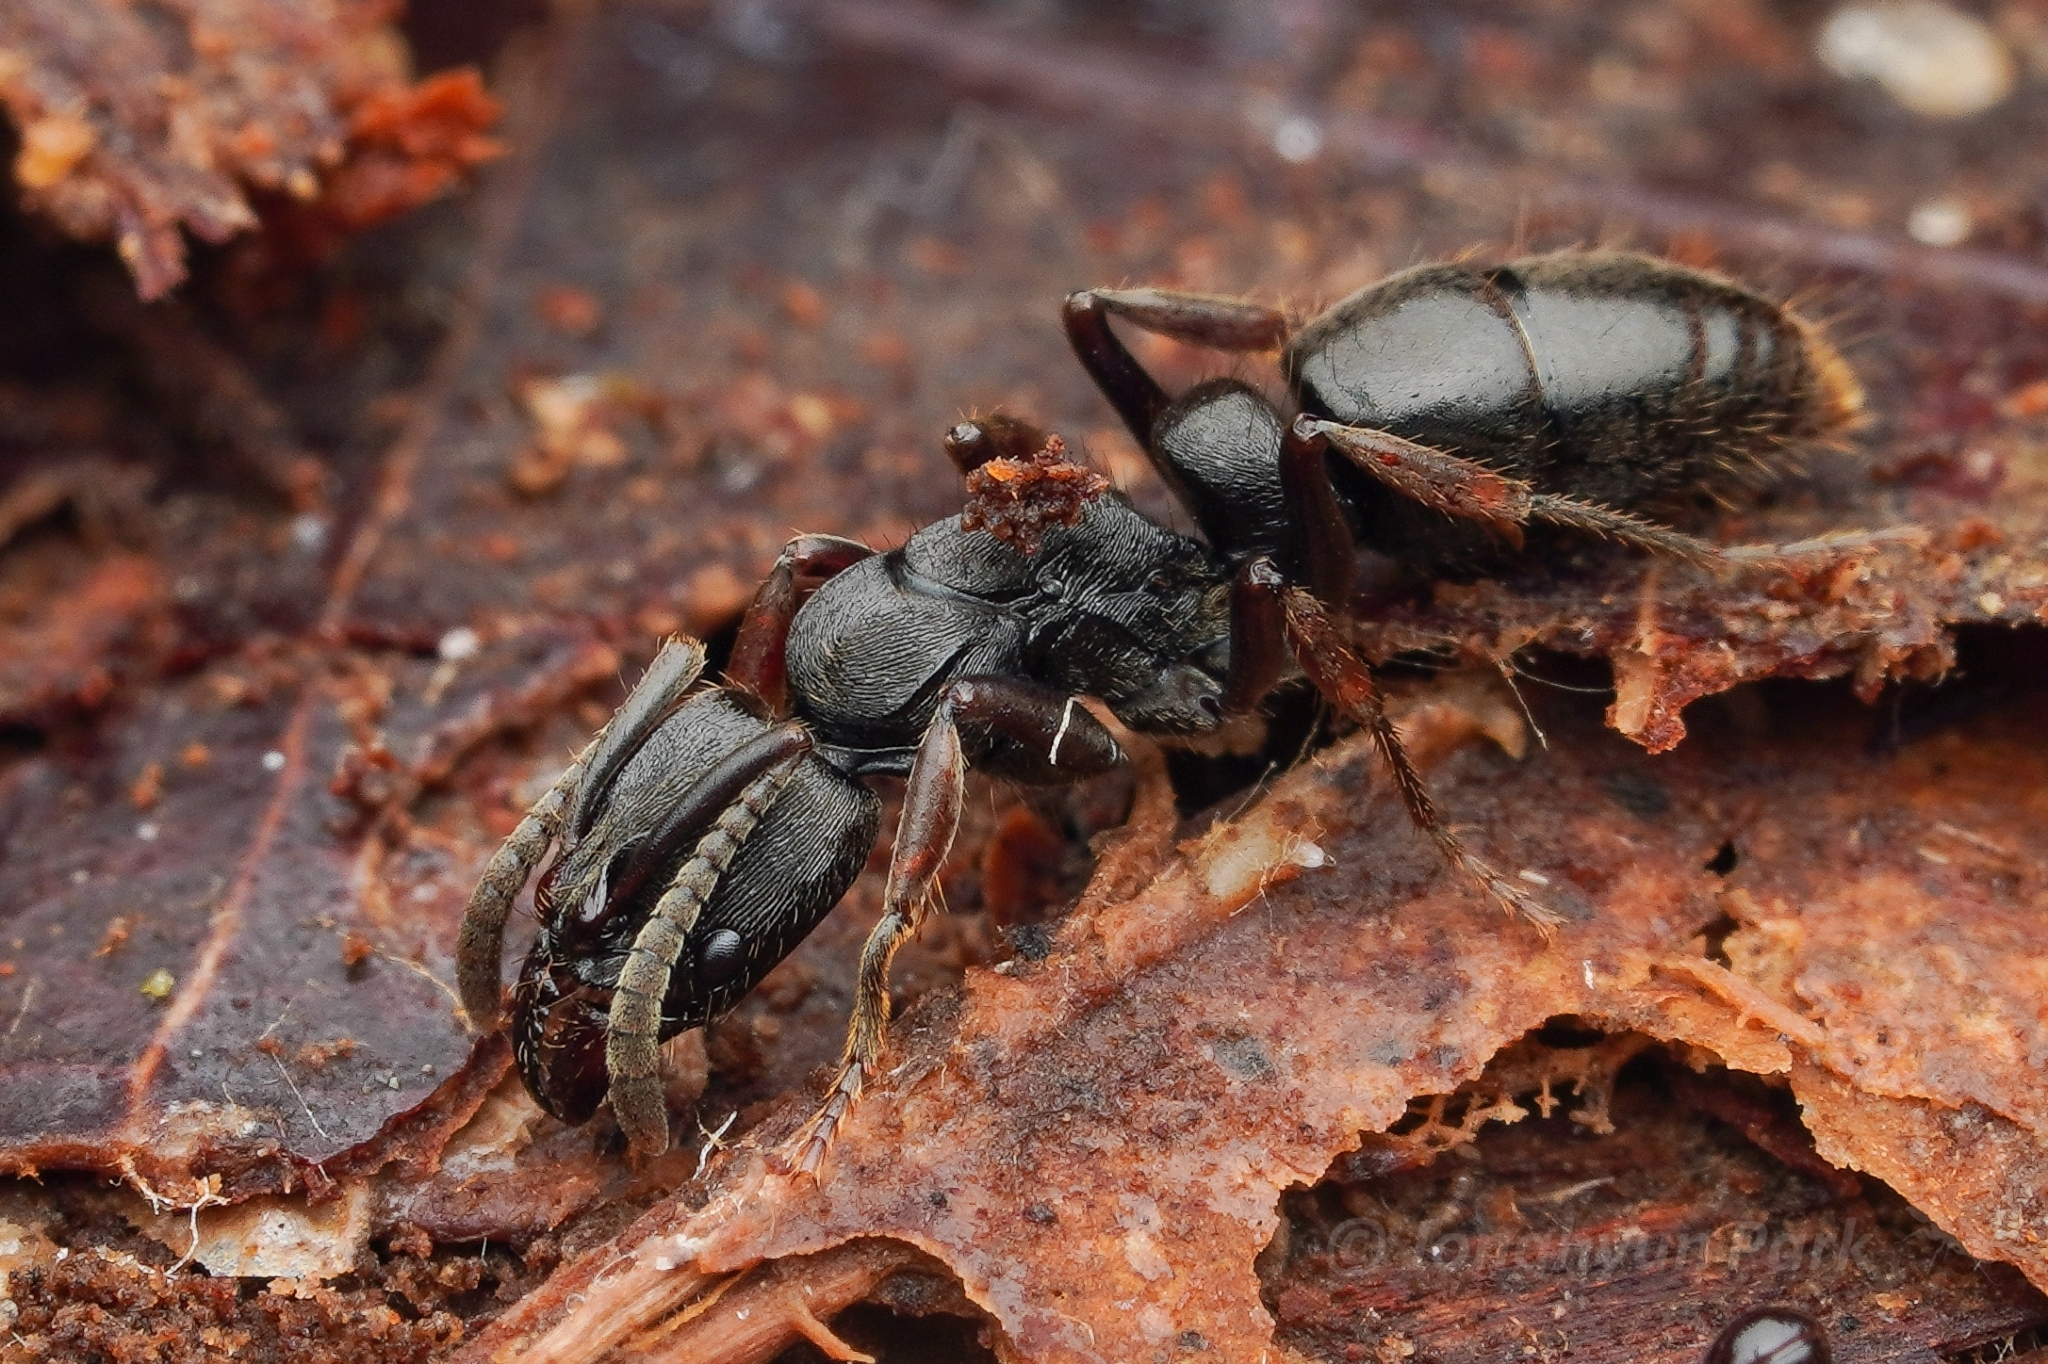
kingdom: Animalia
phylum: Arthropoda
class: Insecta
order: Hymenoptera
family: Formicidae
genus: Pachycondyla
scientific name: Pachycondyla striata
